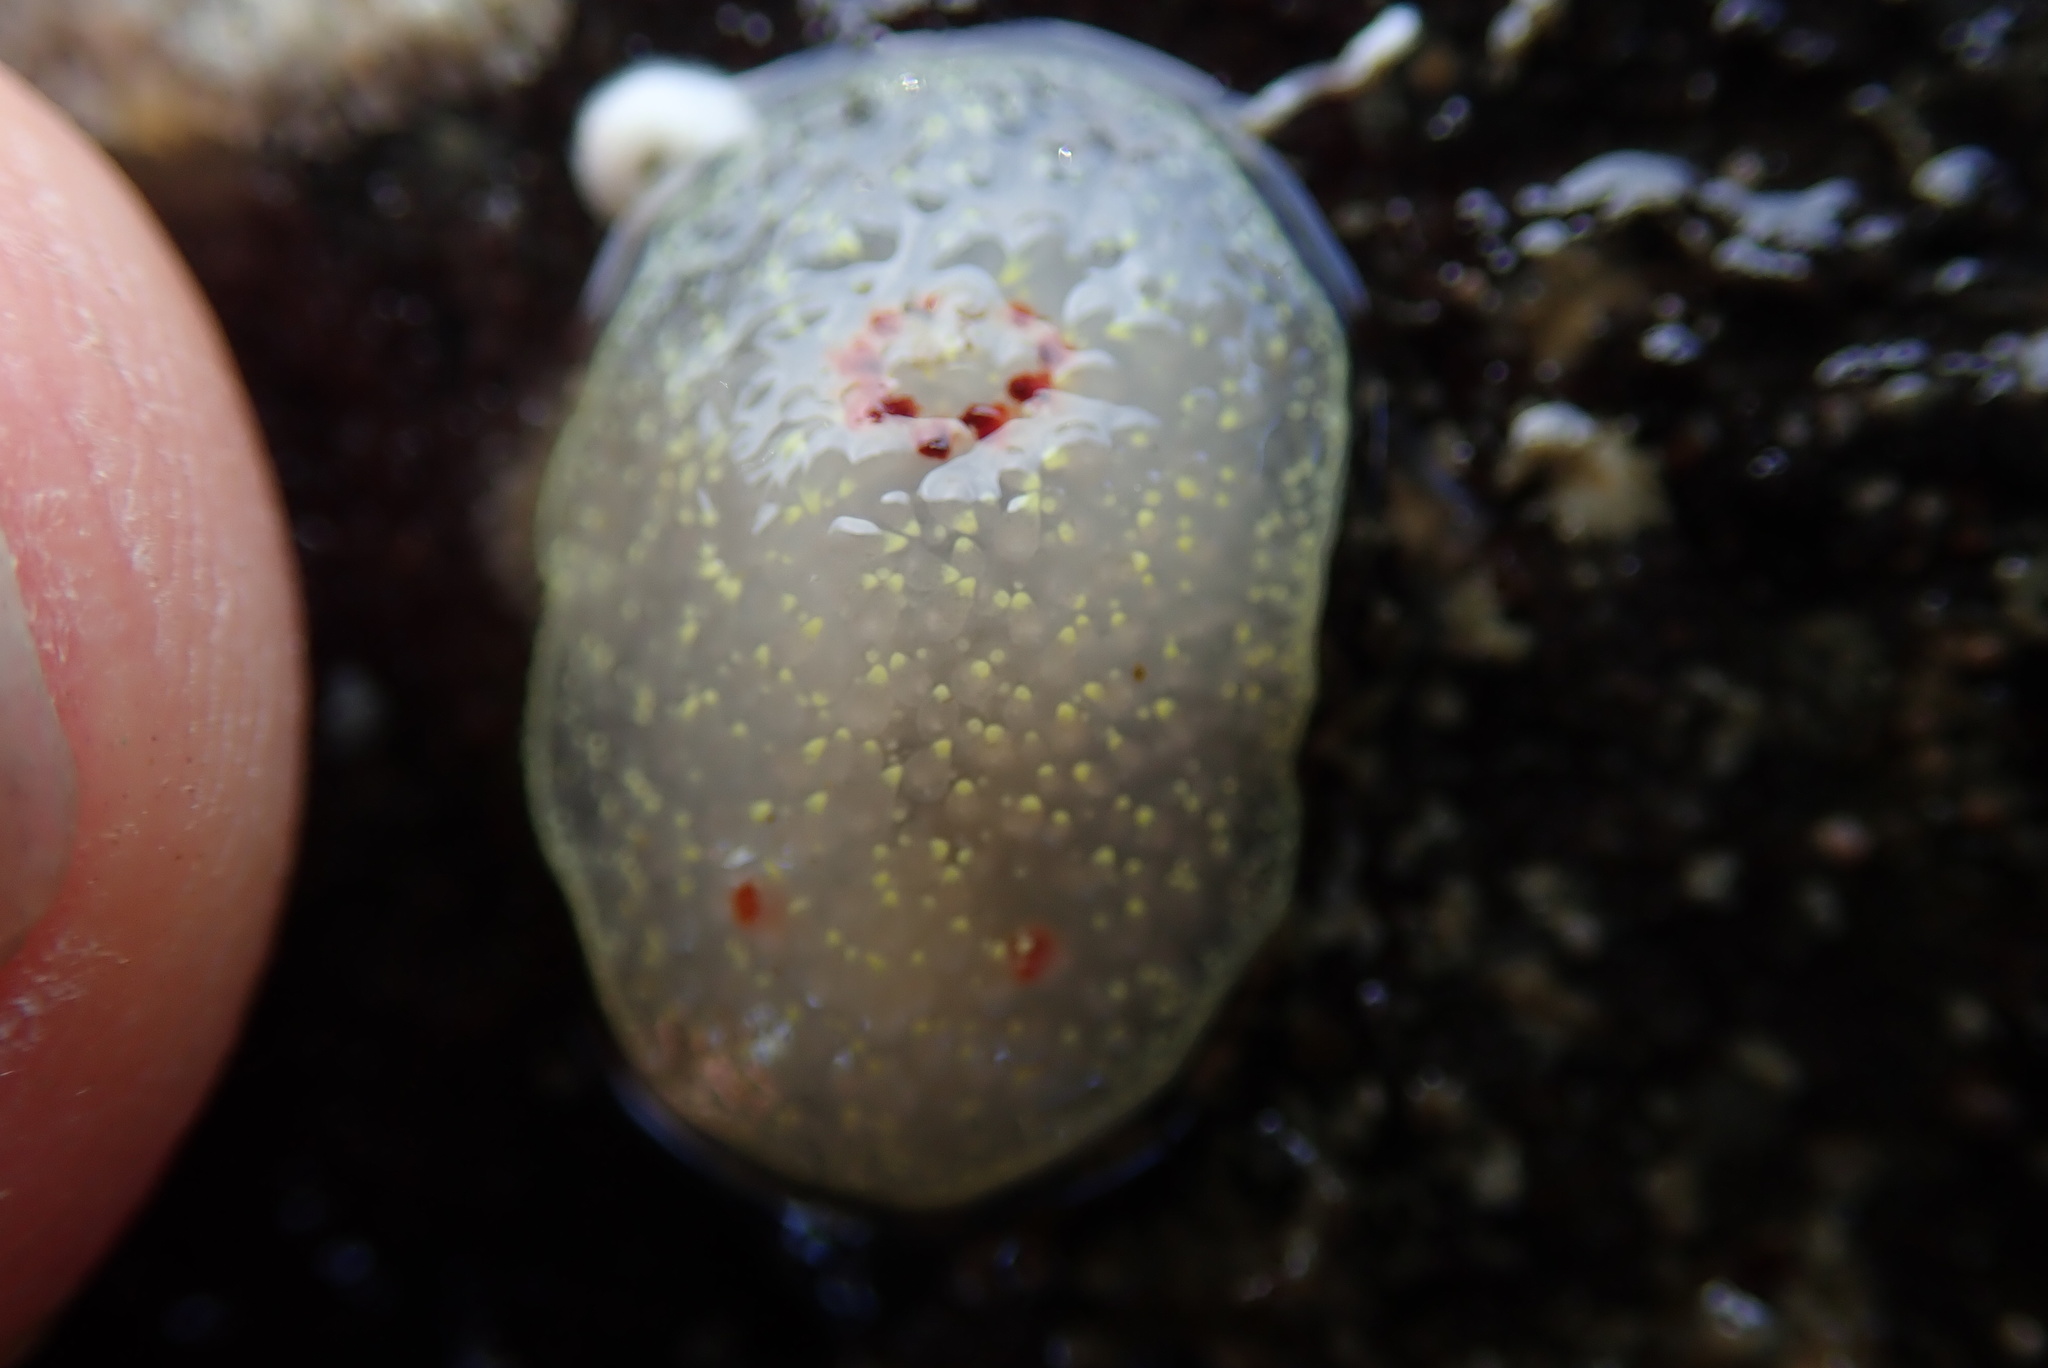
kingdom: Animalia
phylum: Mollusca
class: Gastropoda
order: Nudibranchia
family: Onchidorididae
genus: Acanthodoris
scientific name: Acanthodoris nanaimoensis
